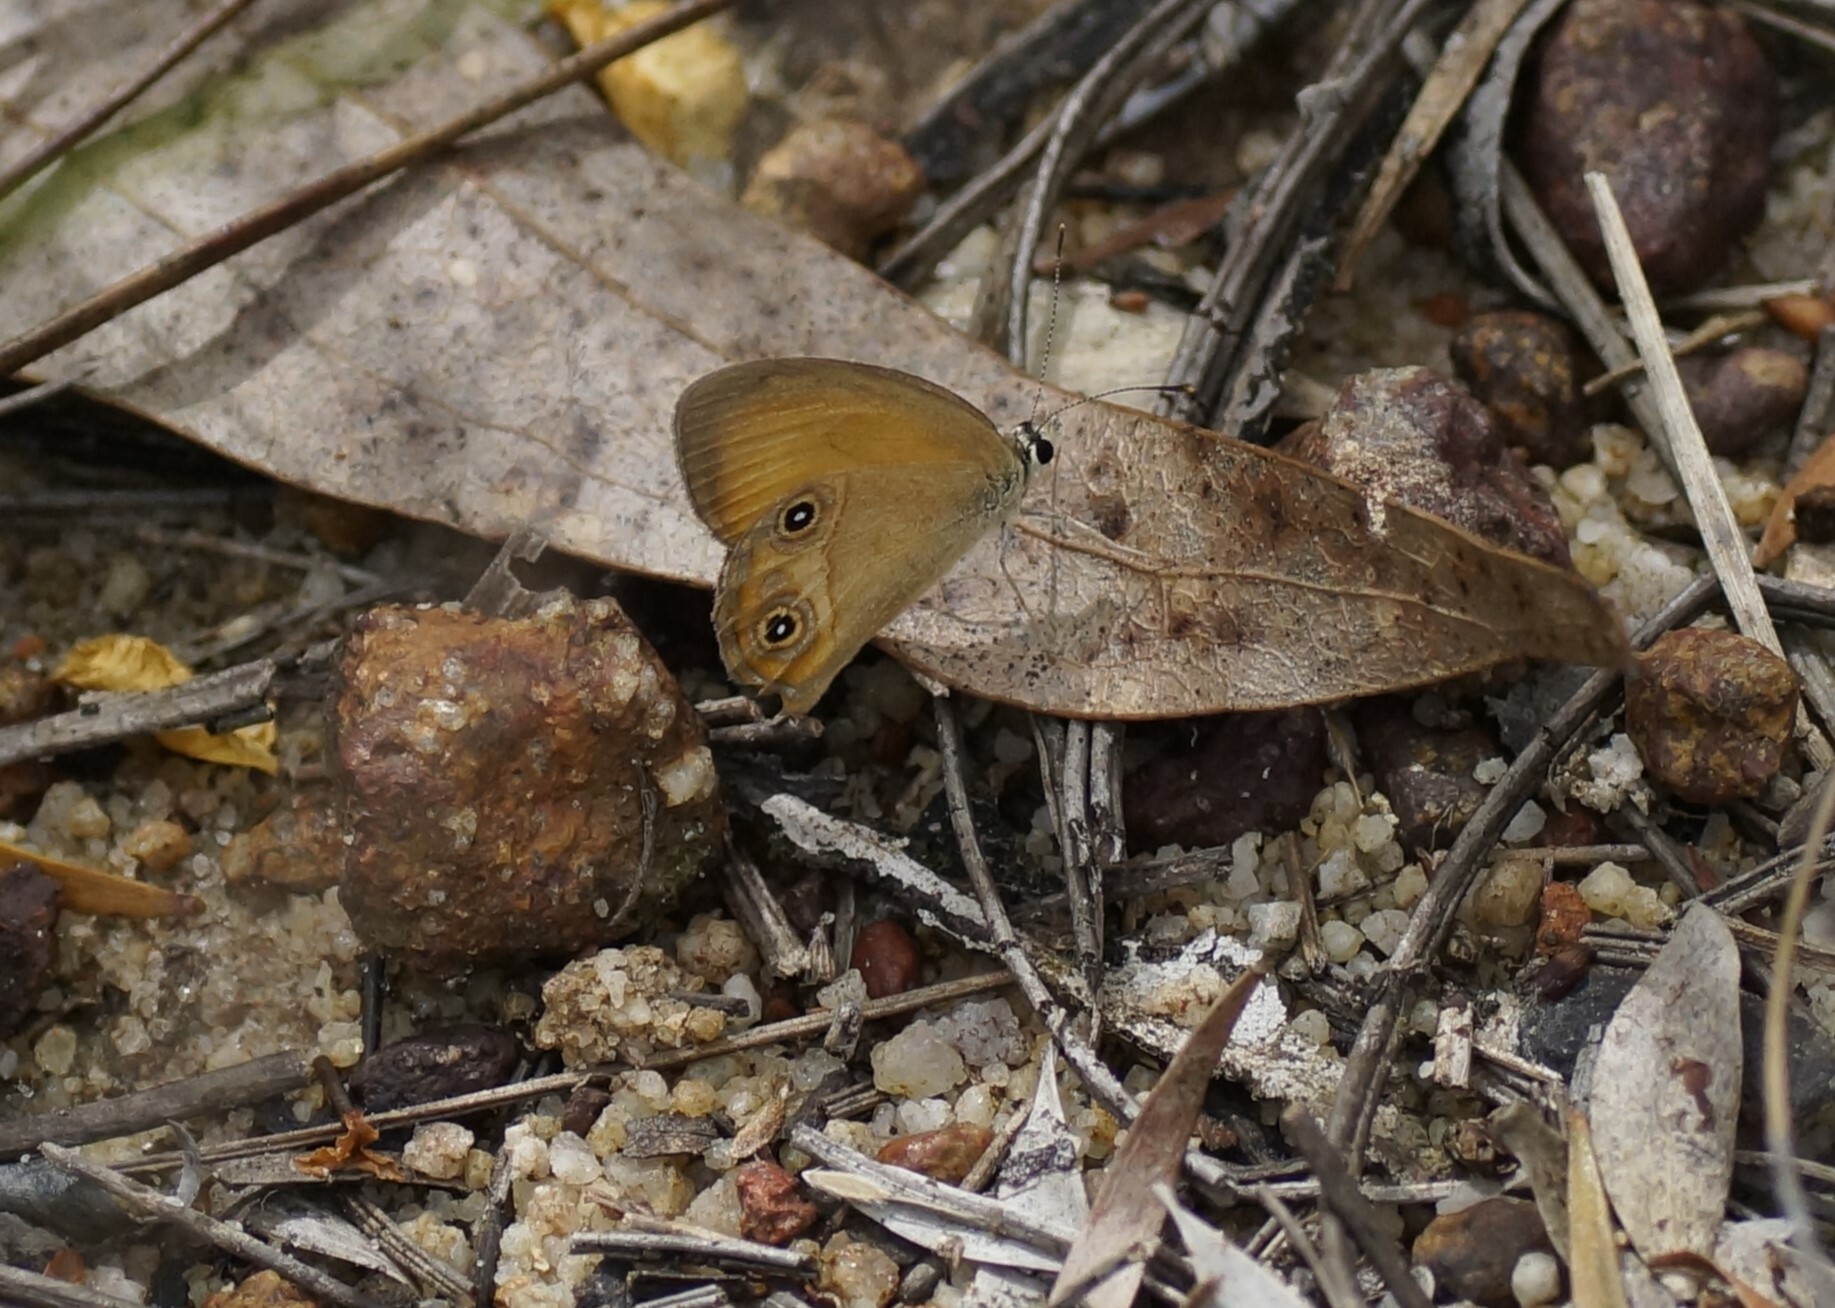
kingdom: Animalia
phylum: Arthropoda
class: Insecta
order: Lepidoptera
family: Nymphalidae
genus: Hypocysta
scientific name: Hypocysta adiante
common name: Orange ringlet
